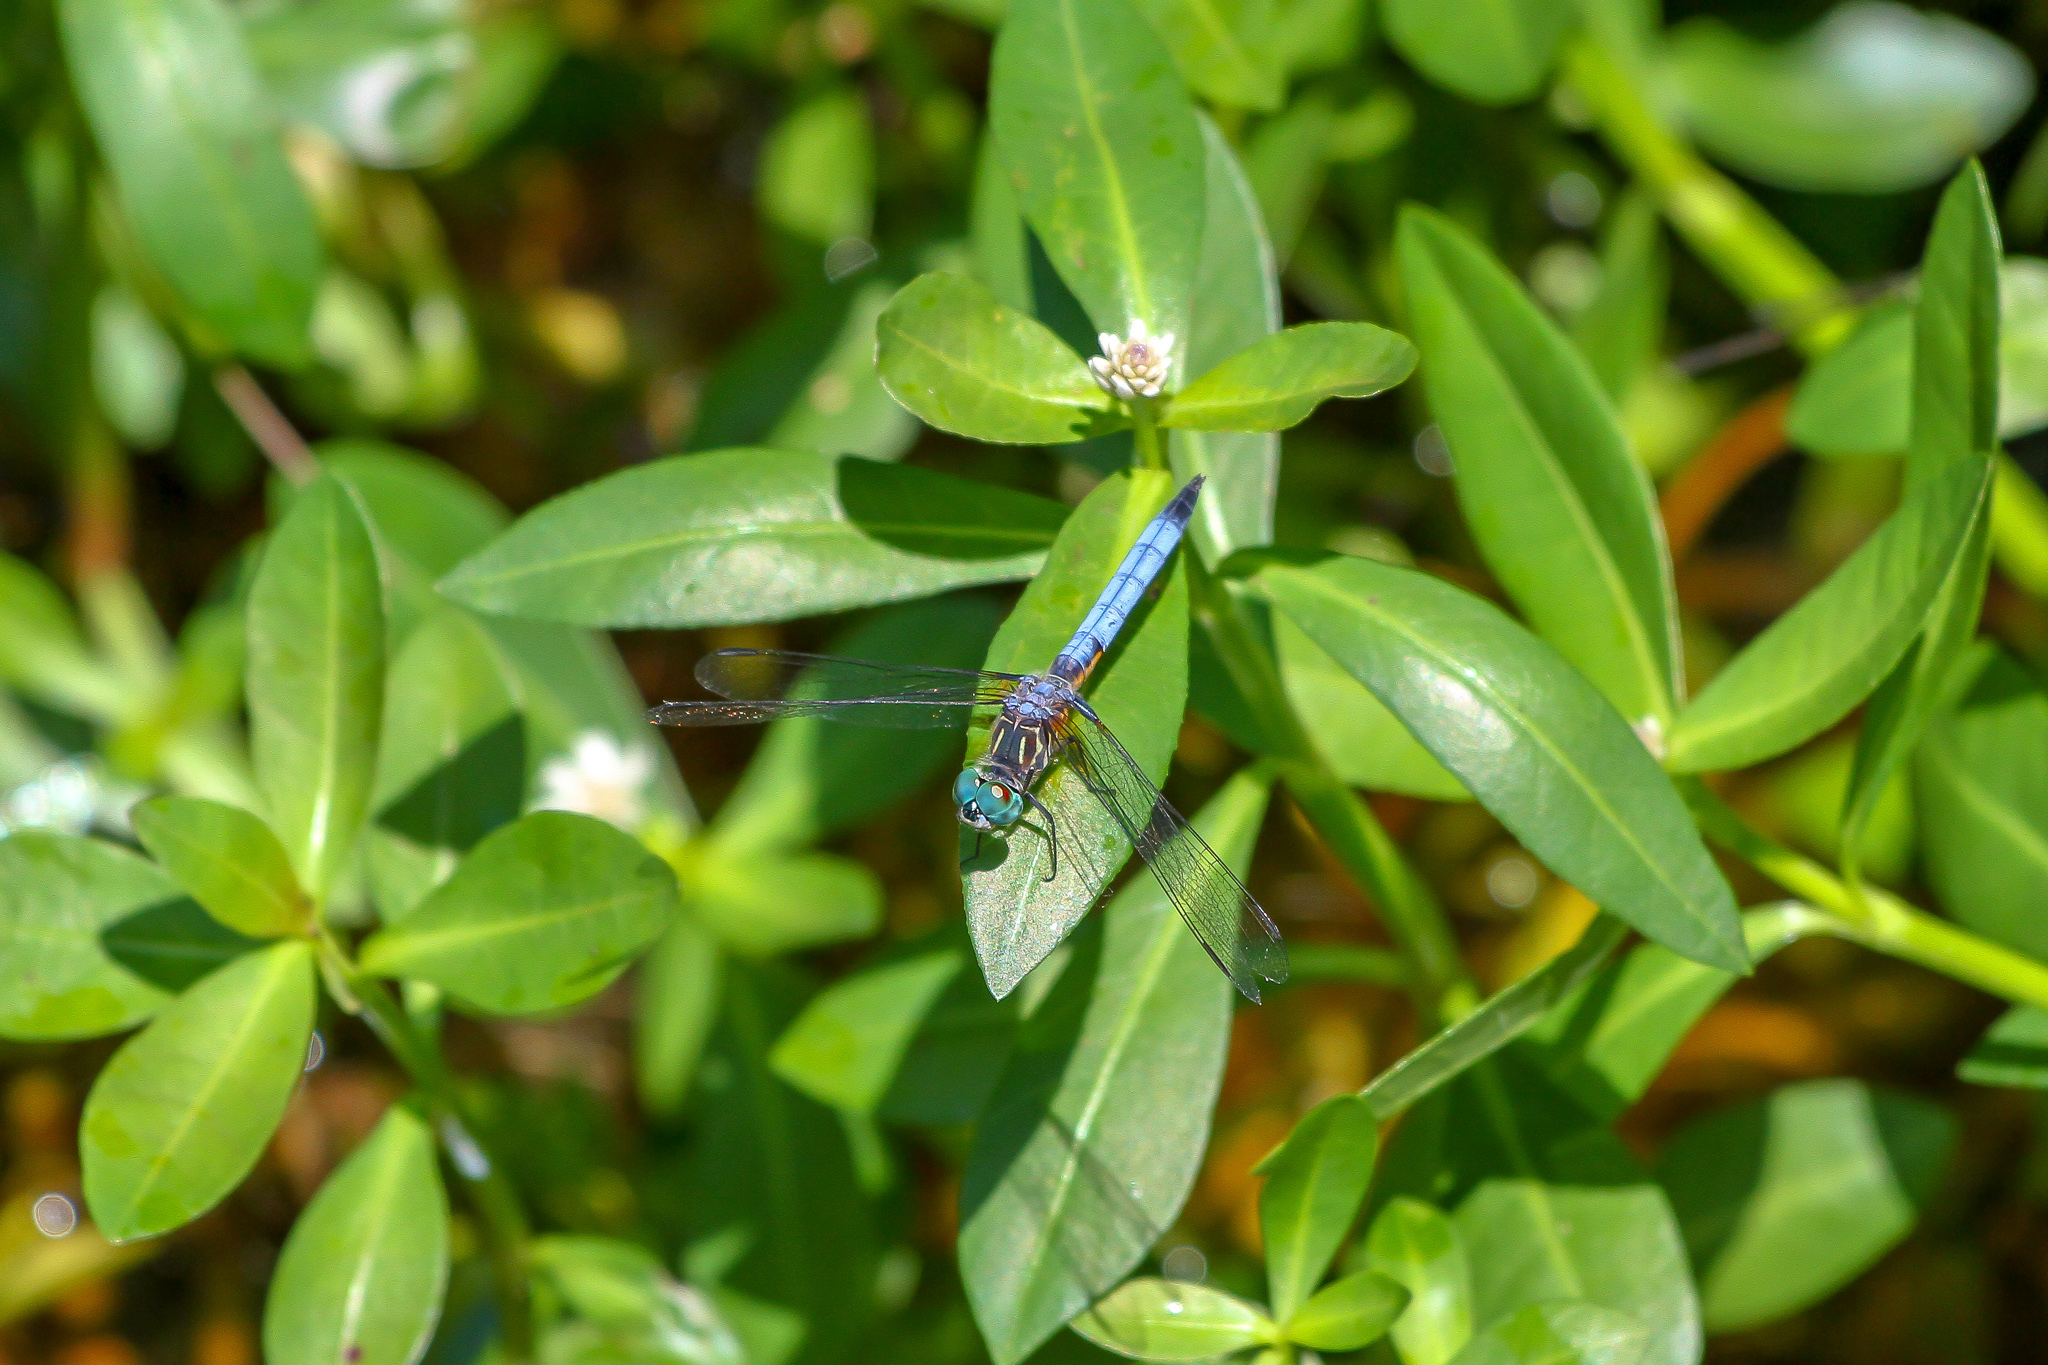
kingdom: Animalia
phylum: Arthropoda
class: Insecta
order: Odonata
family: Libellulidae
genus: Pachydiplax
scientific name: Pachydiplax longipennis
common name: Blue dasher
